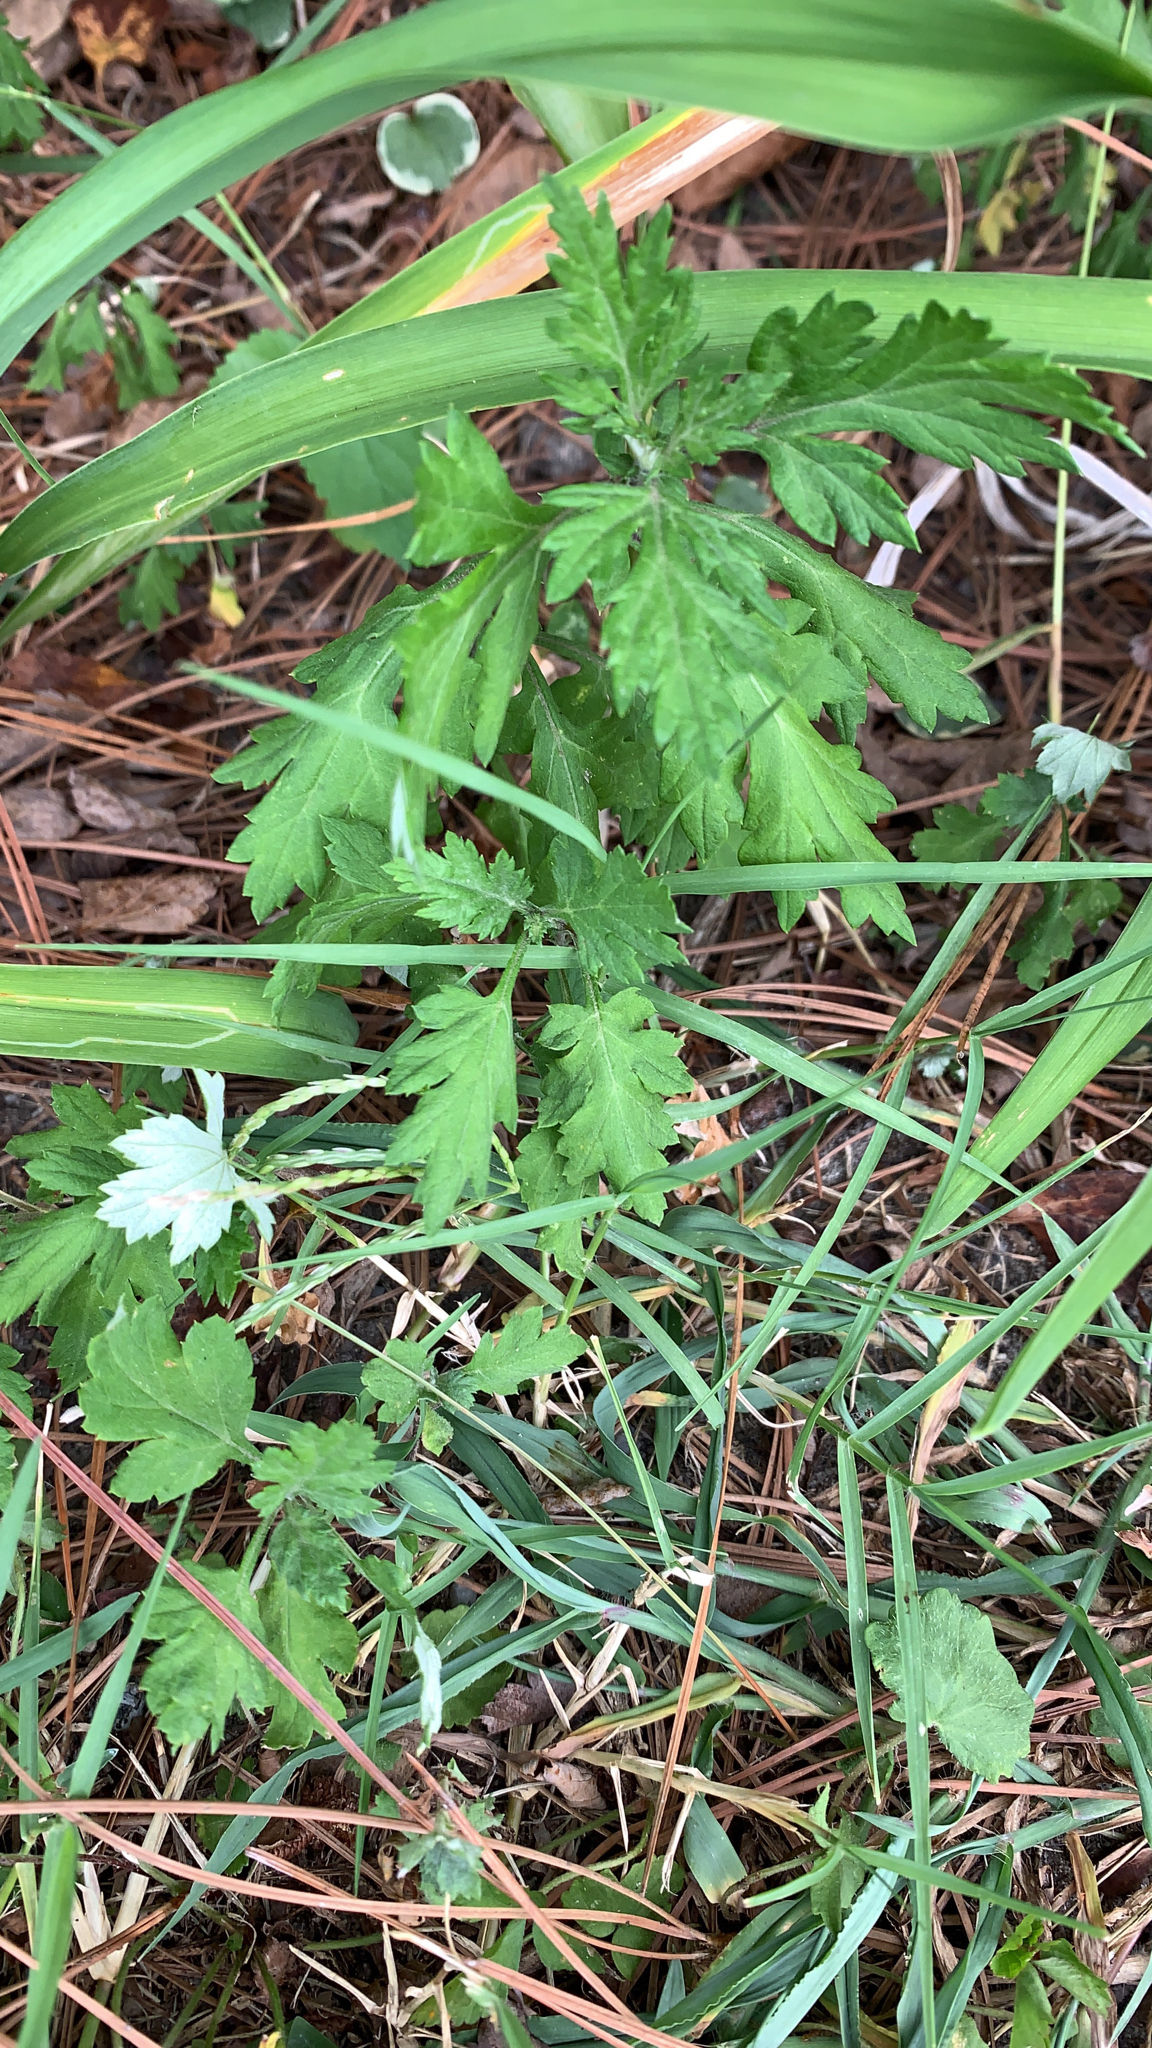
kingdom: Plantae
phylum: Tracheophyta
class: Magnoliopsida
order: Asterales
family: Asteraceae
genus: Artemisia
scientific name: Artemisia vulgaris
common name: Mugwort
